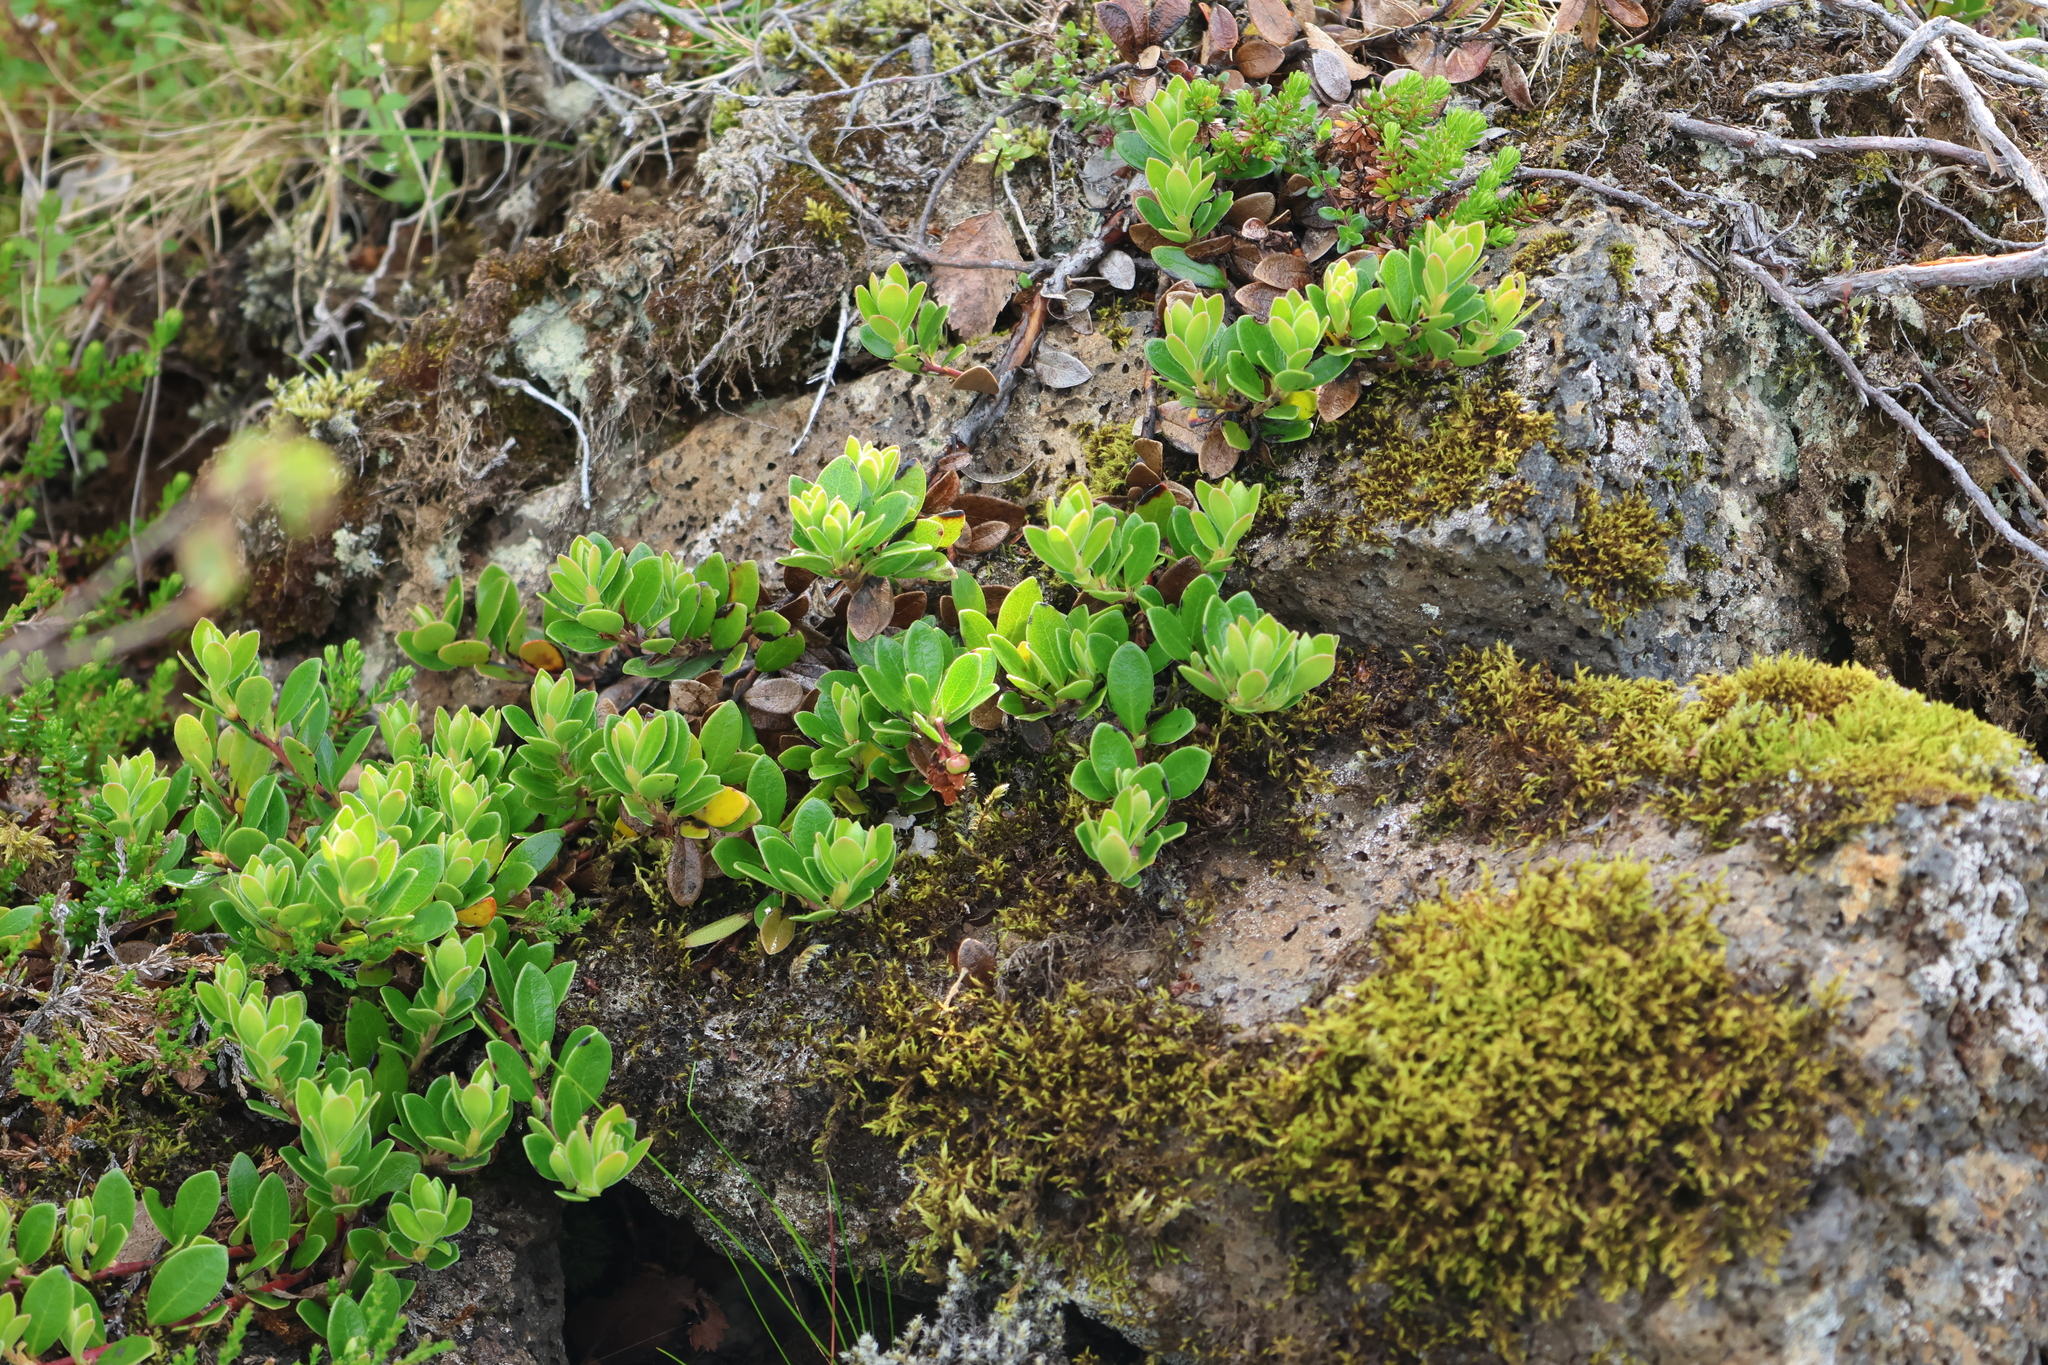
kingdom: Plantae
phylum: Tracheophyta
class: Magnoliopsida
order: Ericales
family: Ericaceae
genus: Arctostaphylos
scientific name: Arctostaphylos uva-ursi
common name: Bearberry
